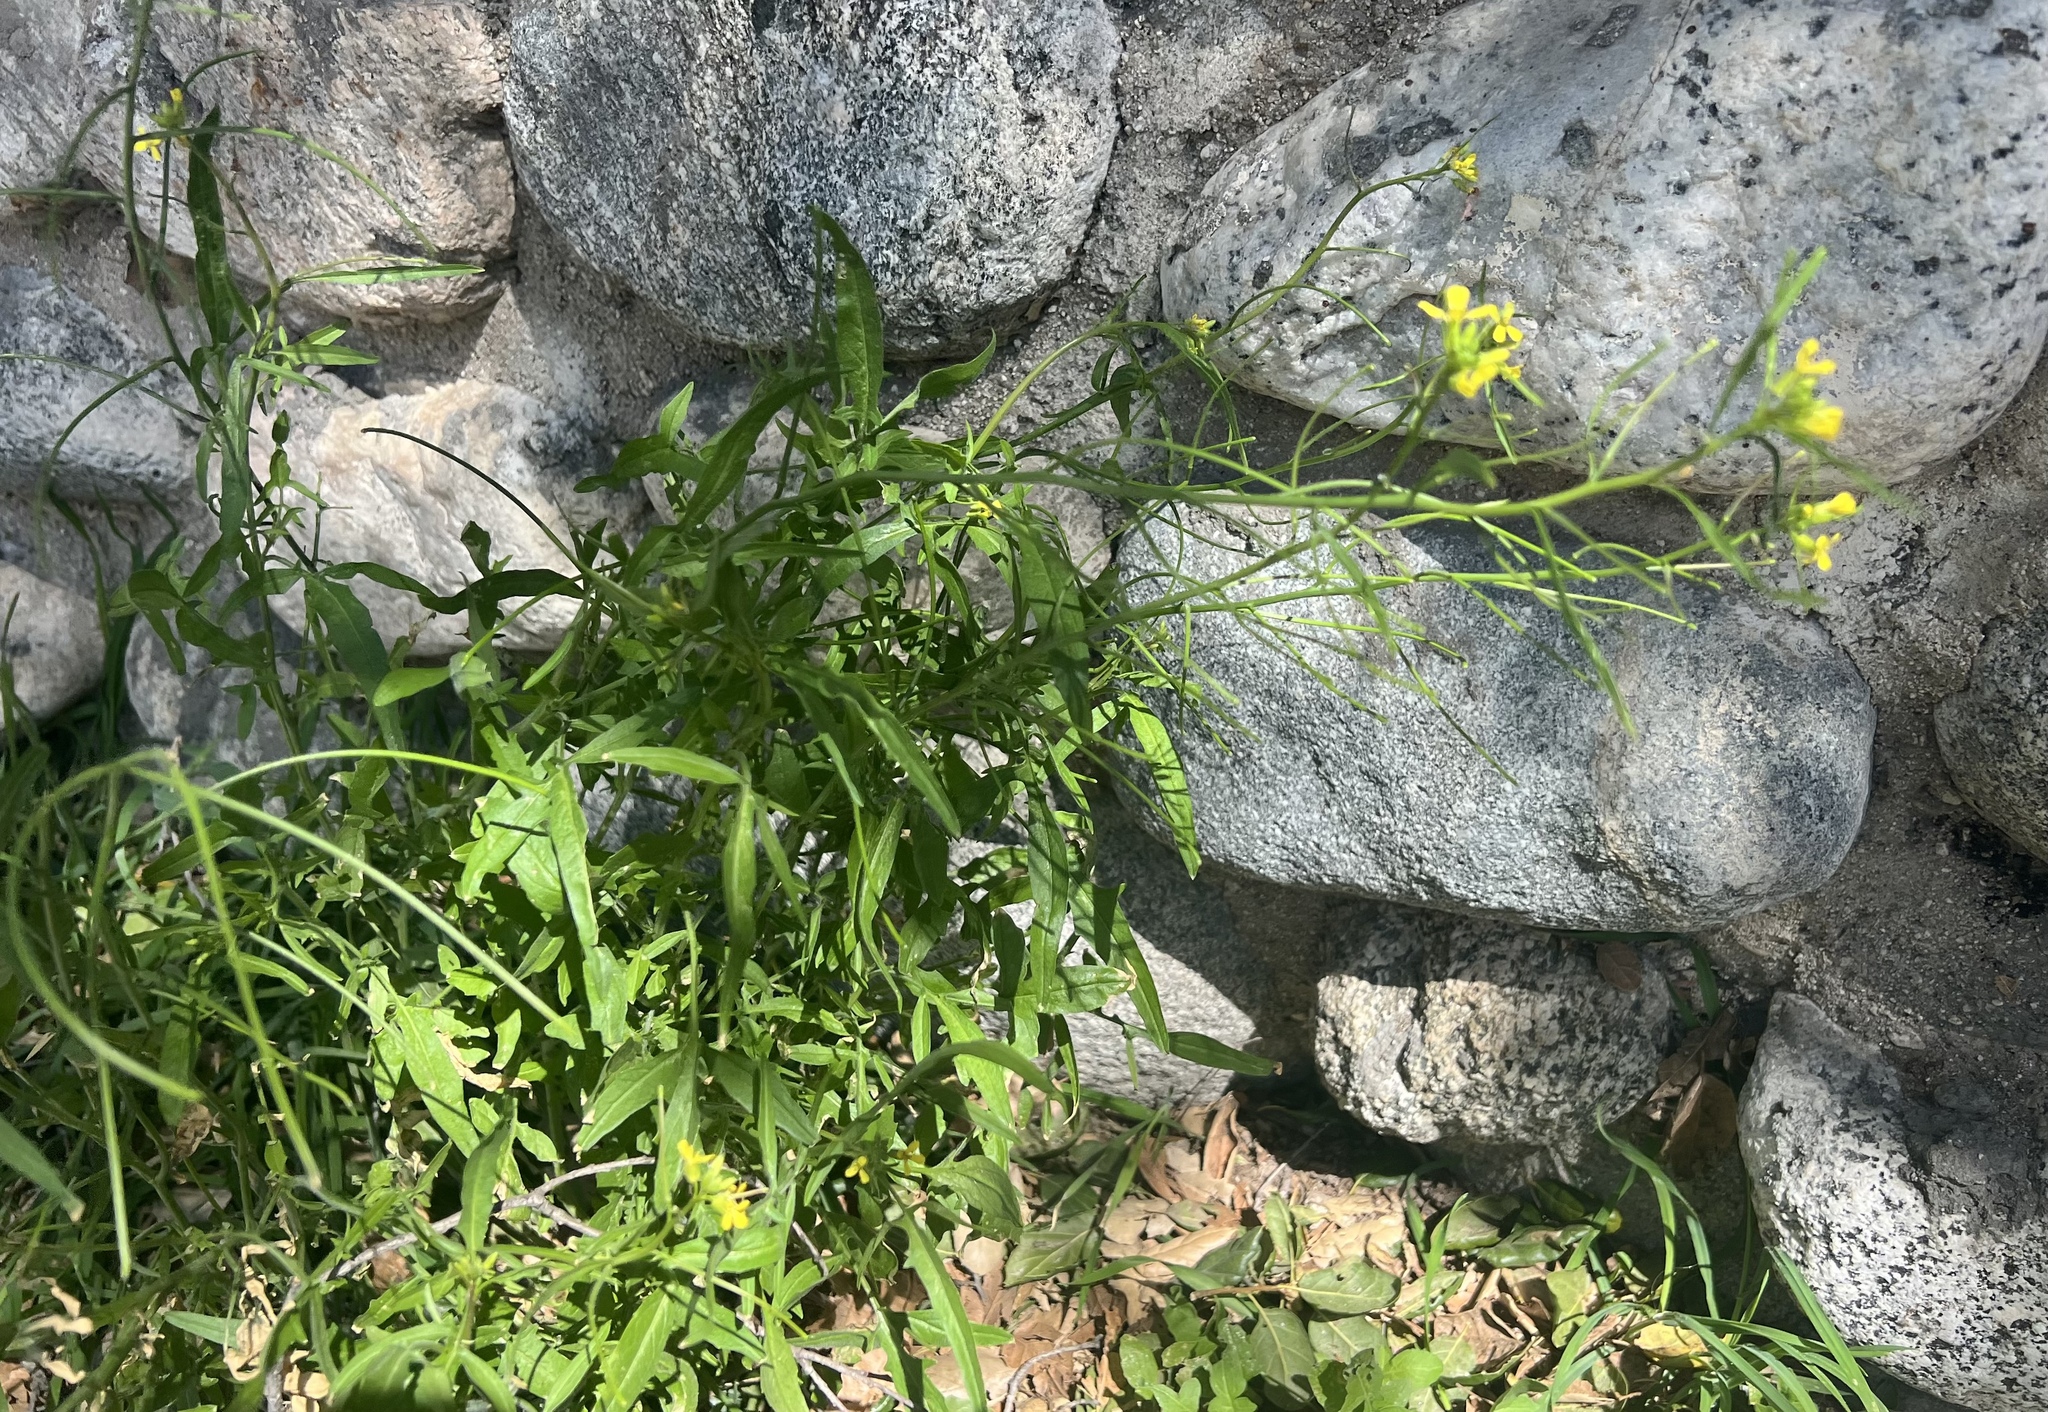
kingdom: Plantae
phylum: Tracheophyta
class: Magnoliopsida
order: Brassicales
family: Brassicaceae
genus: Sisymbrium
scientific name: Sisymbrium orientale
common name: Eastern rocket
